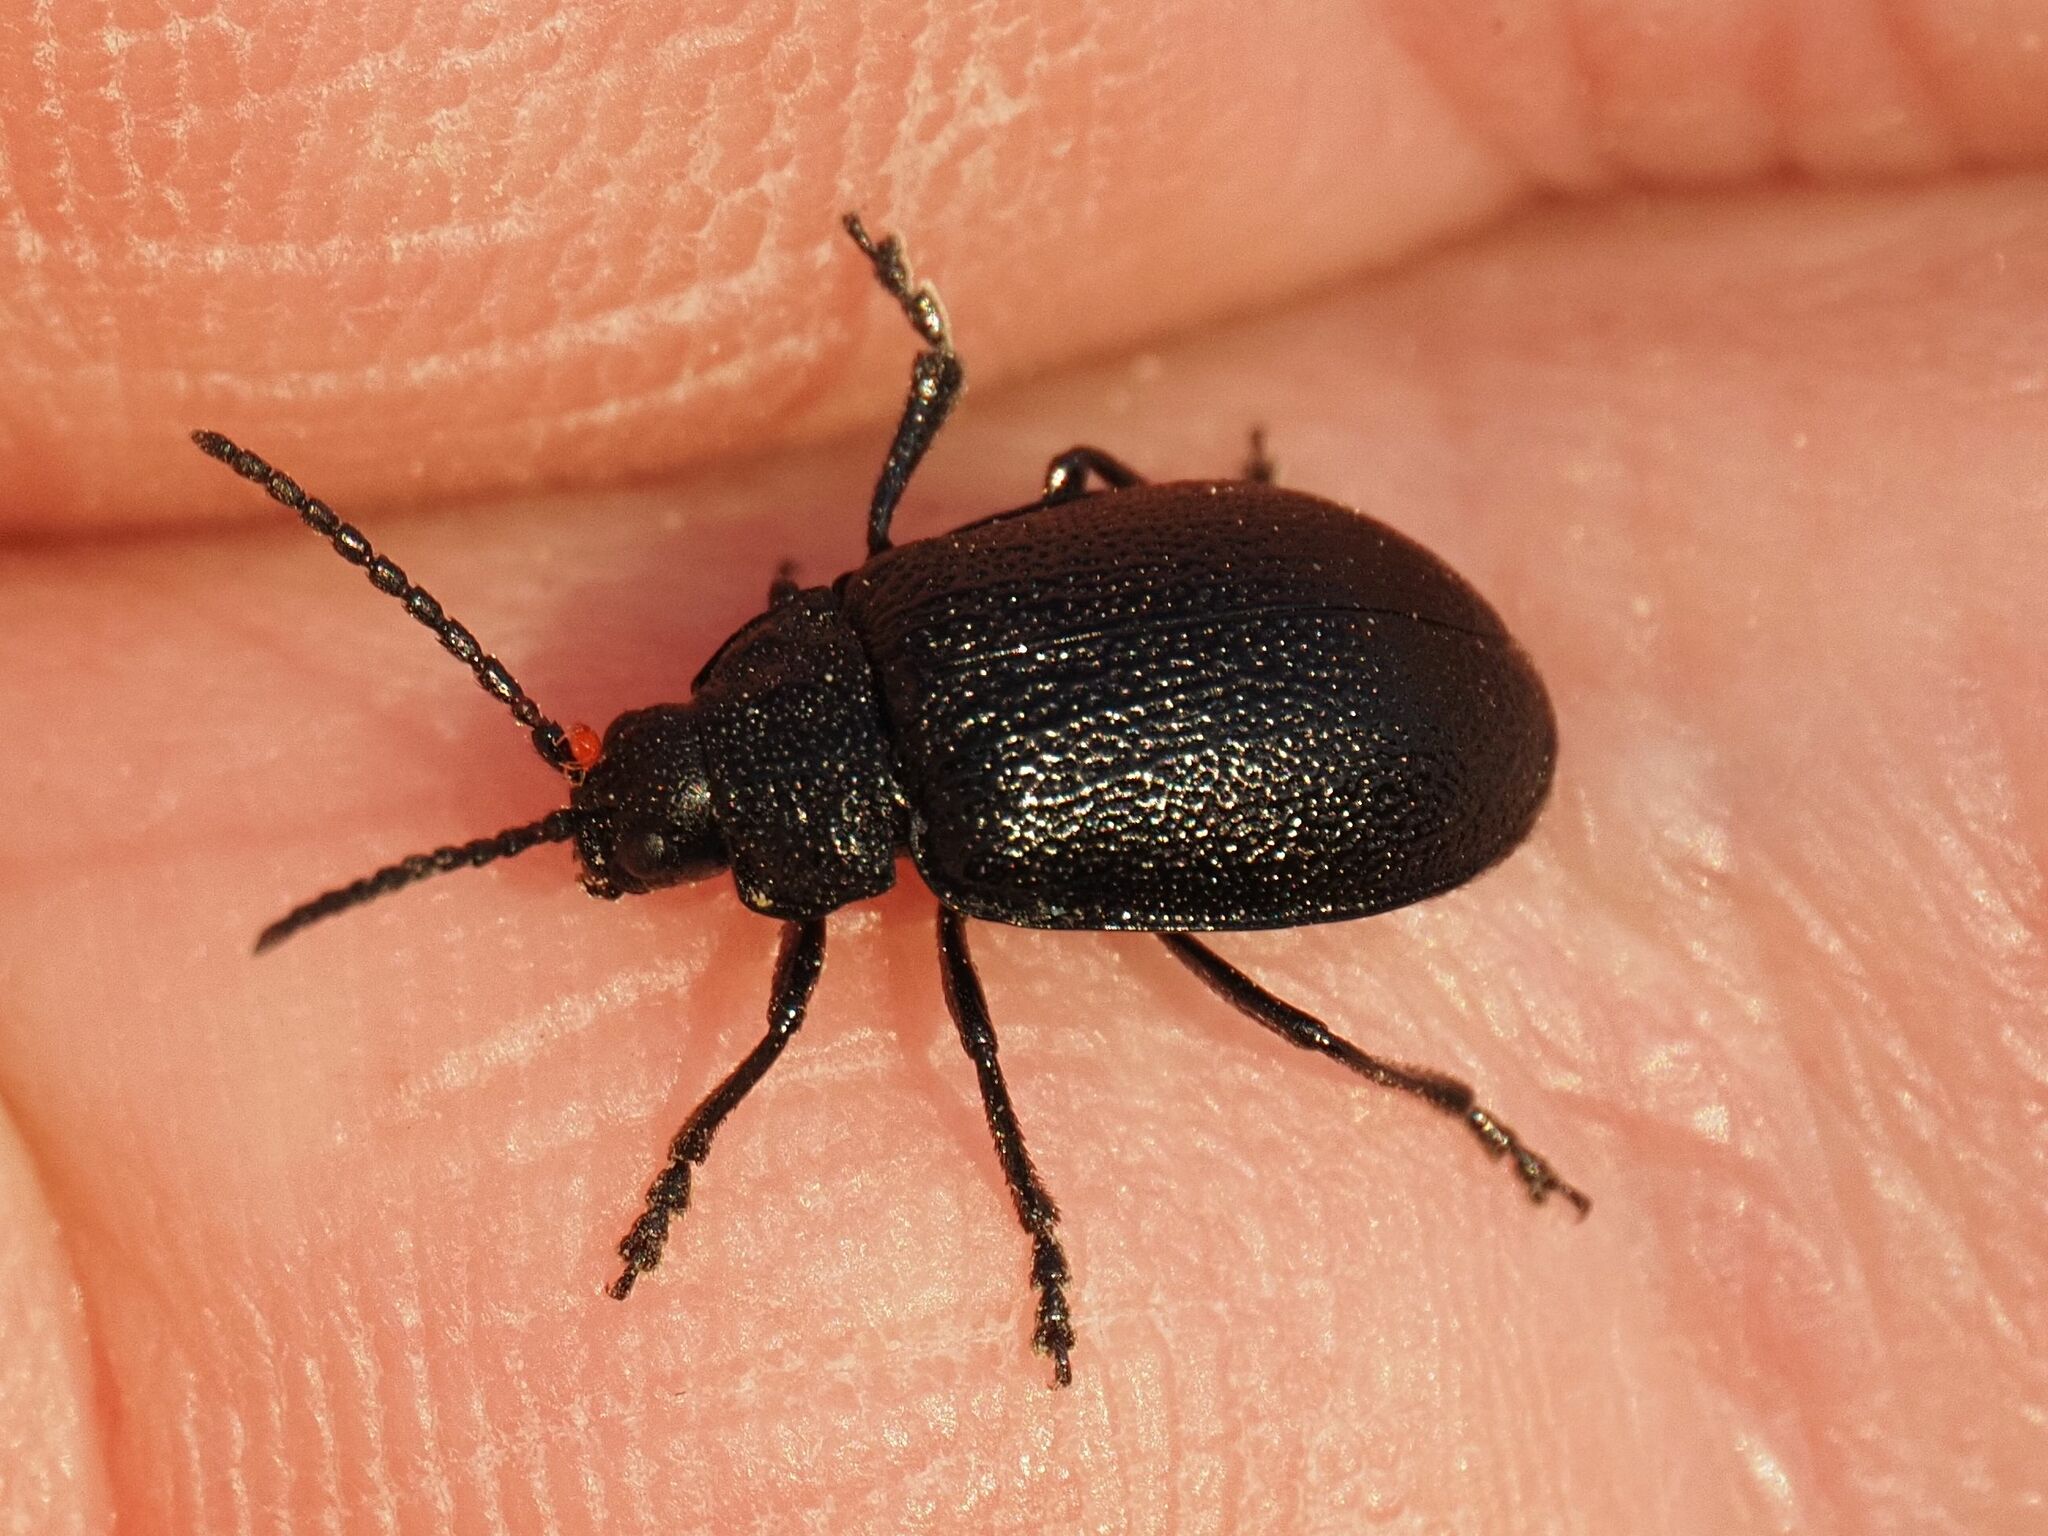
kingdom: Animalia
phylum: Arthropoda
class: Insecta
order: Coleoptera
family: Chrysomelidae
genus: Galeruca
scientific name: Galeruca tanaceti
